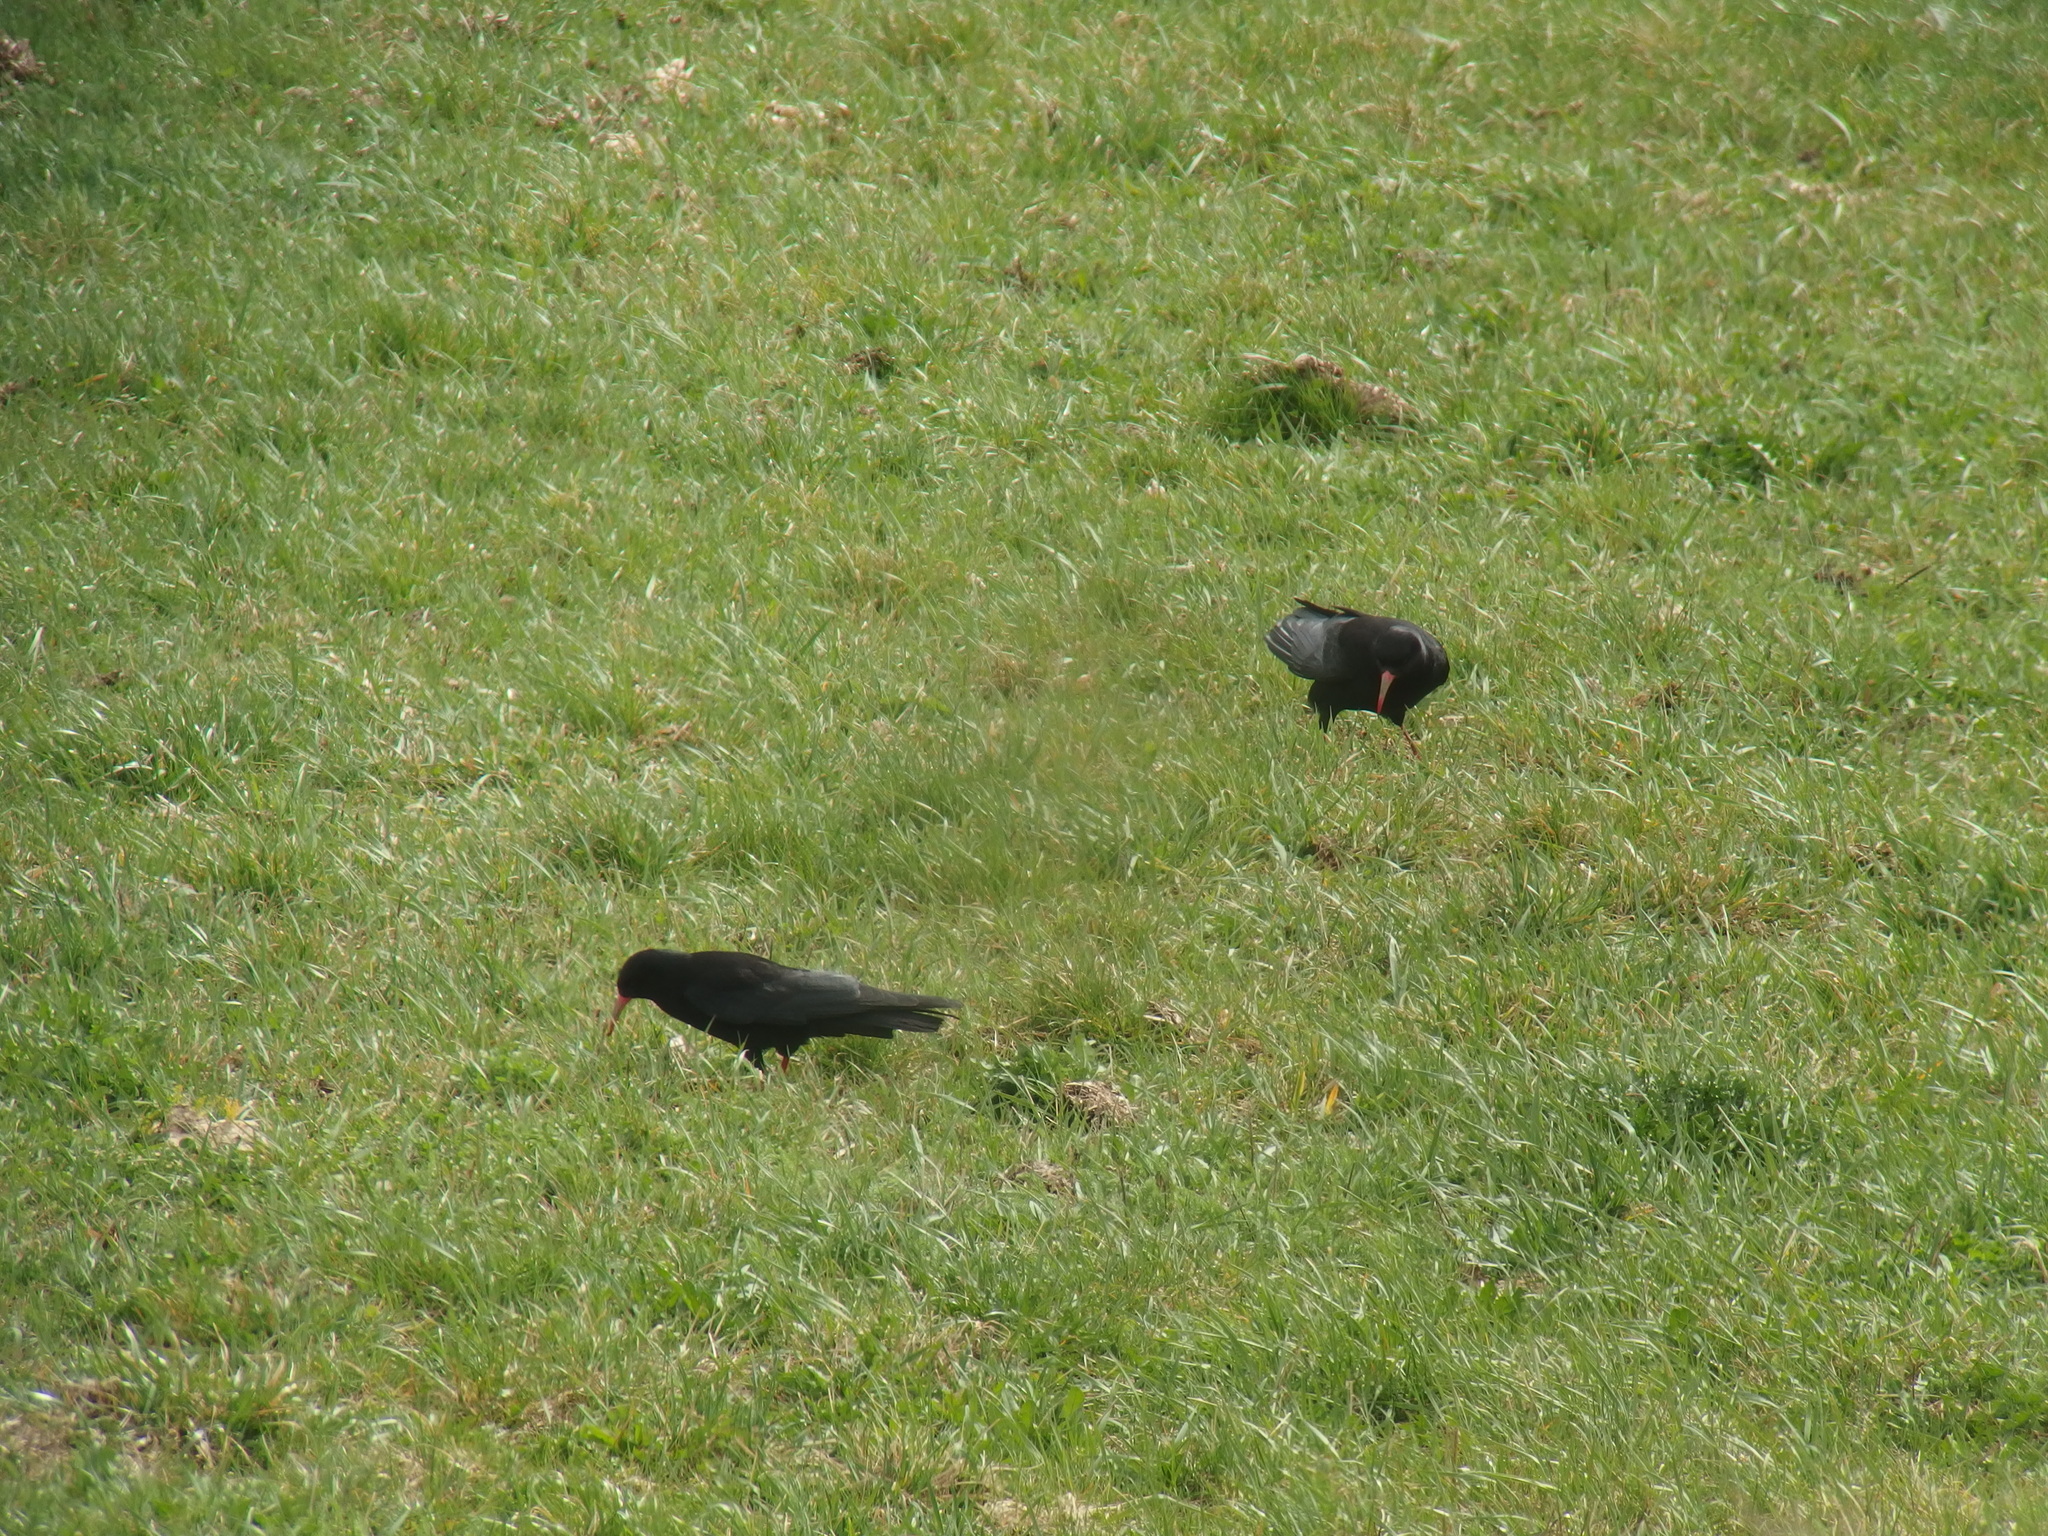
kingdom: Animalia
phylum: Chordata
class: Aves
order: Passeriformes
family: Corvidae
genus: Pyrrhocorax
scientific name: Pyrrhocorax pyrrhocorax
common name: Red-billed chough
